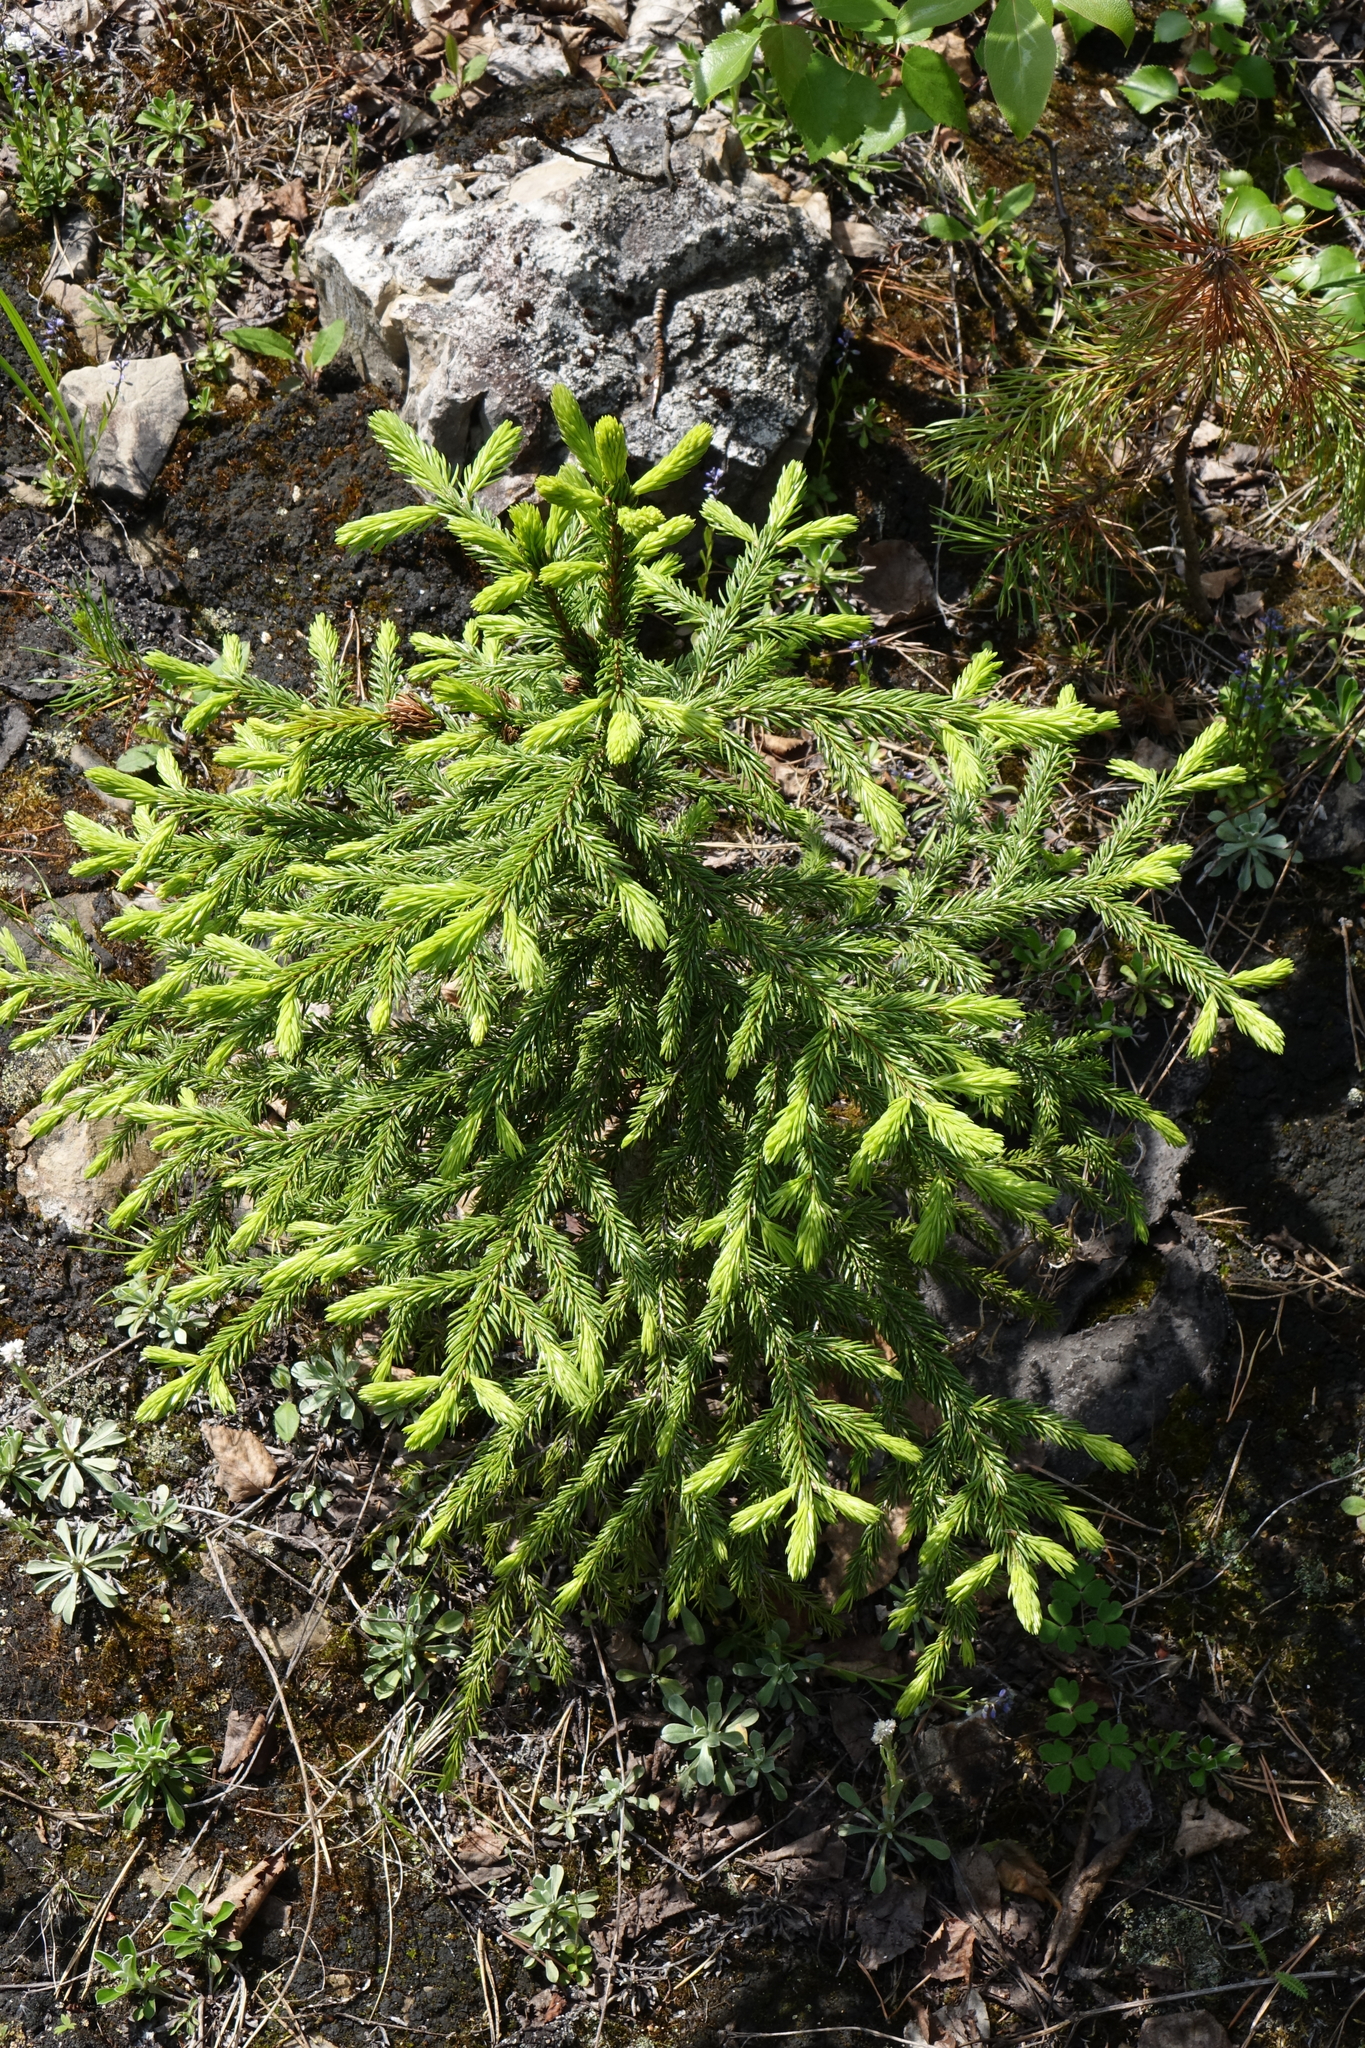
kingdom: Plantae
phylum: Tracheophyta
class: Pinopsida
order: Pinales
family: Pinaceae
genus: Picea
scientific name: Picea obovata
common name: Siberian spruce
